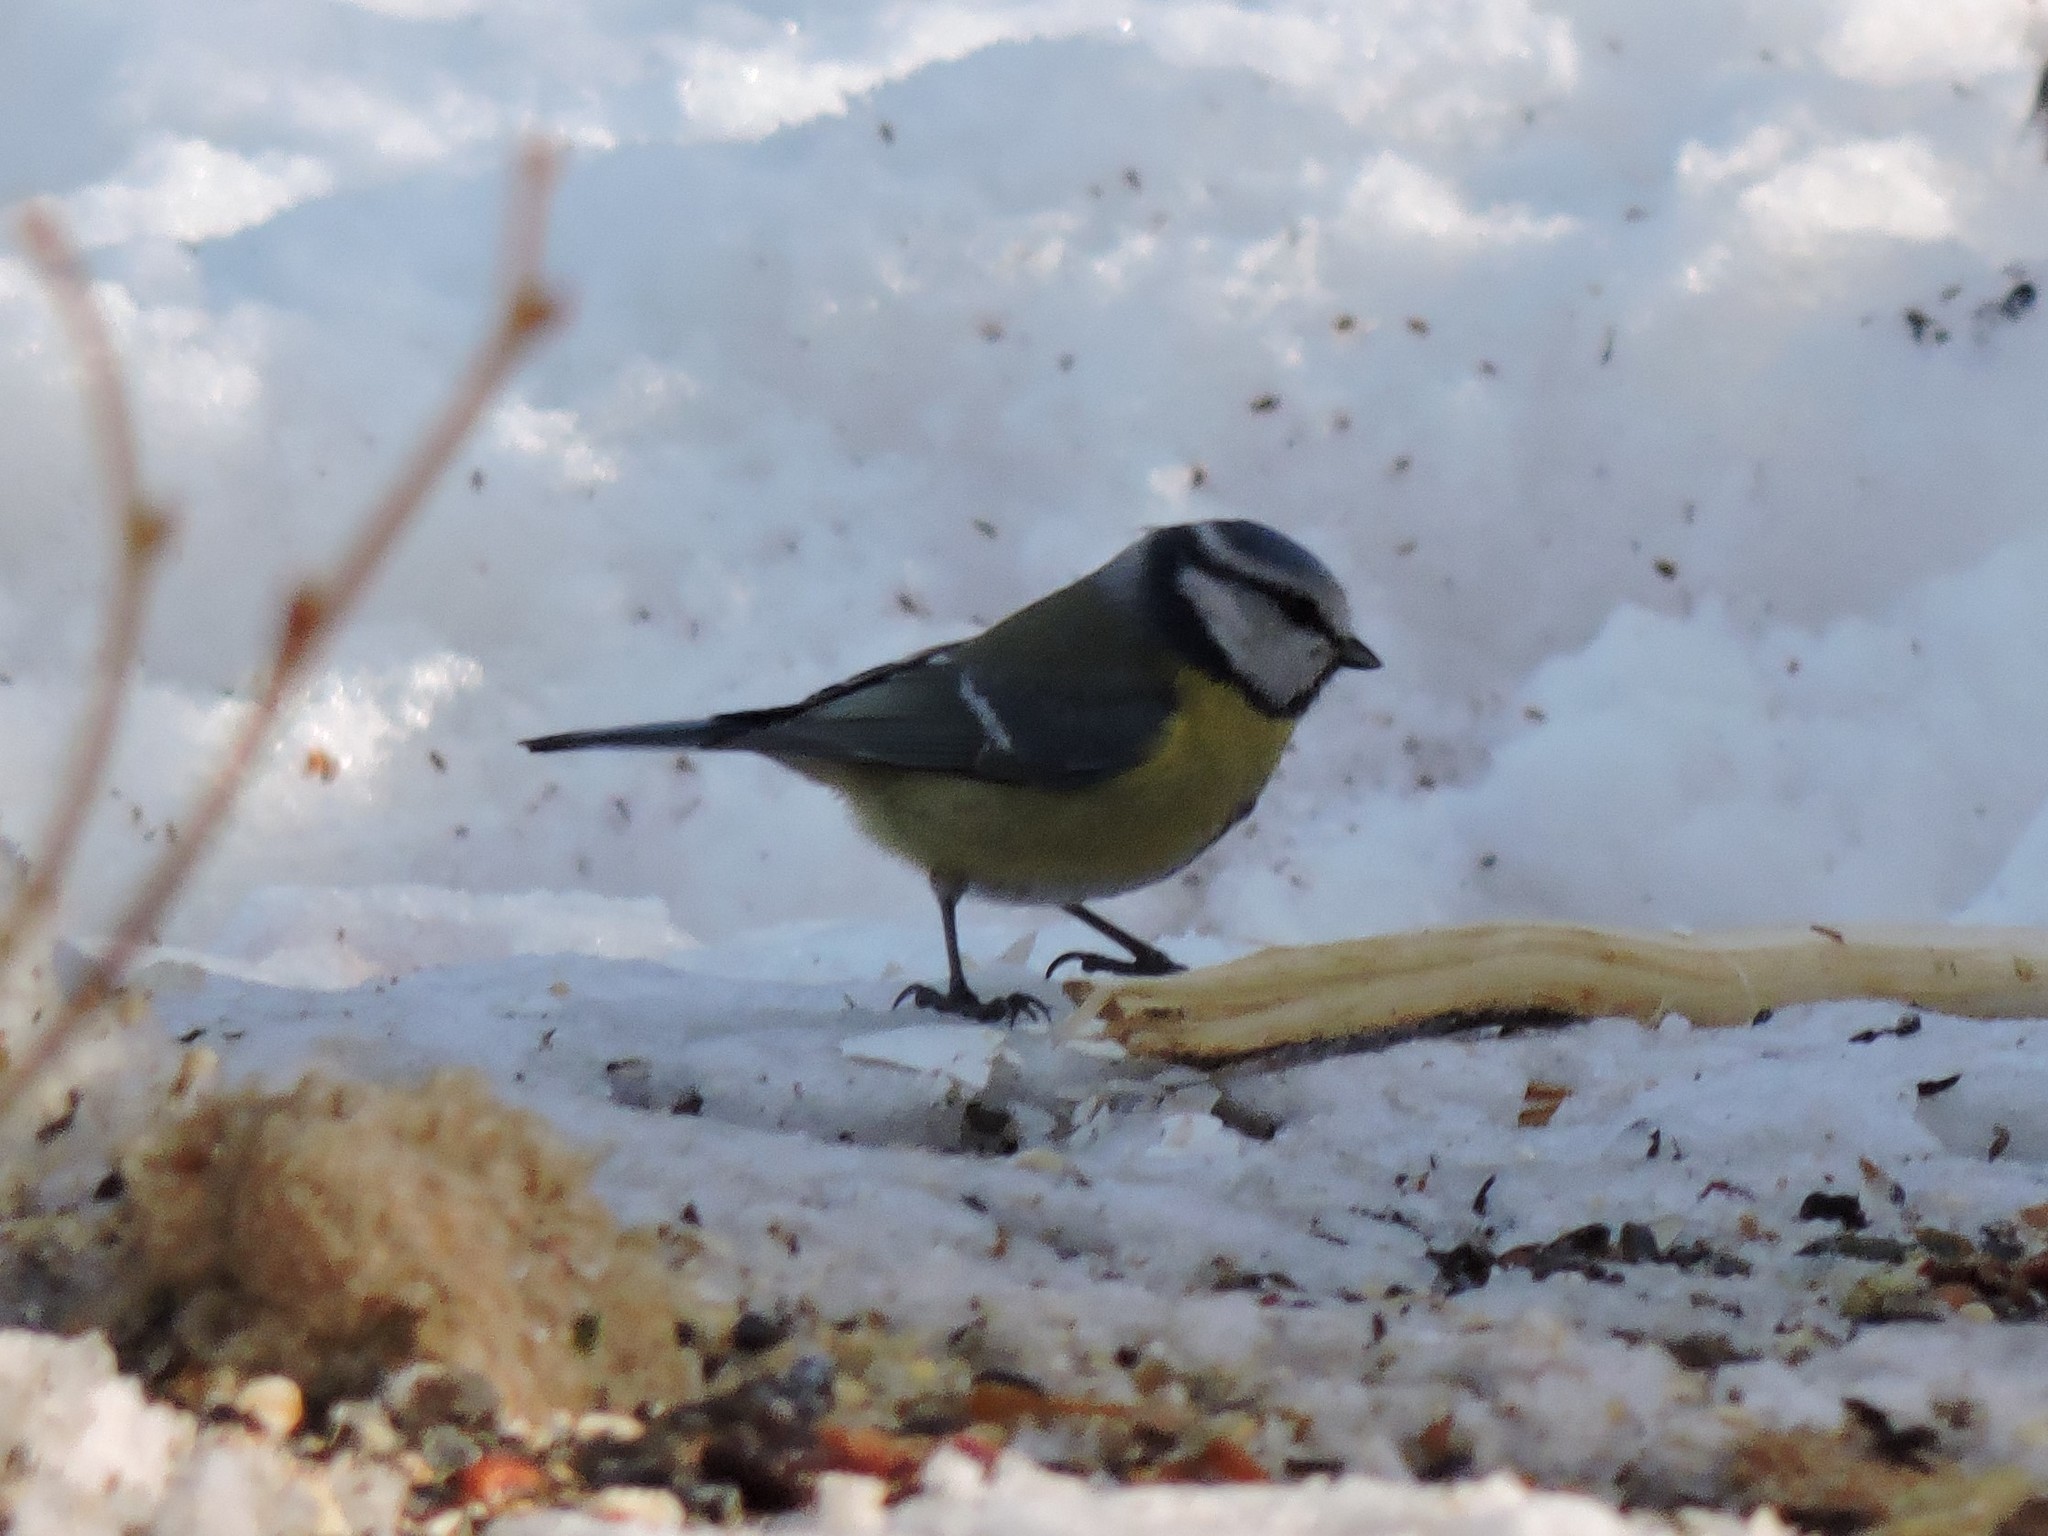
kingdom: Animalia
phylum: Chordata
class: Aves
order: Passeriformes
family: Paridae
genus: Cyanistes
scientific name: Cyanistes caeruleus
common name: Eurasian blue tit
